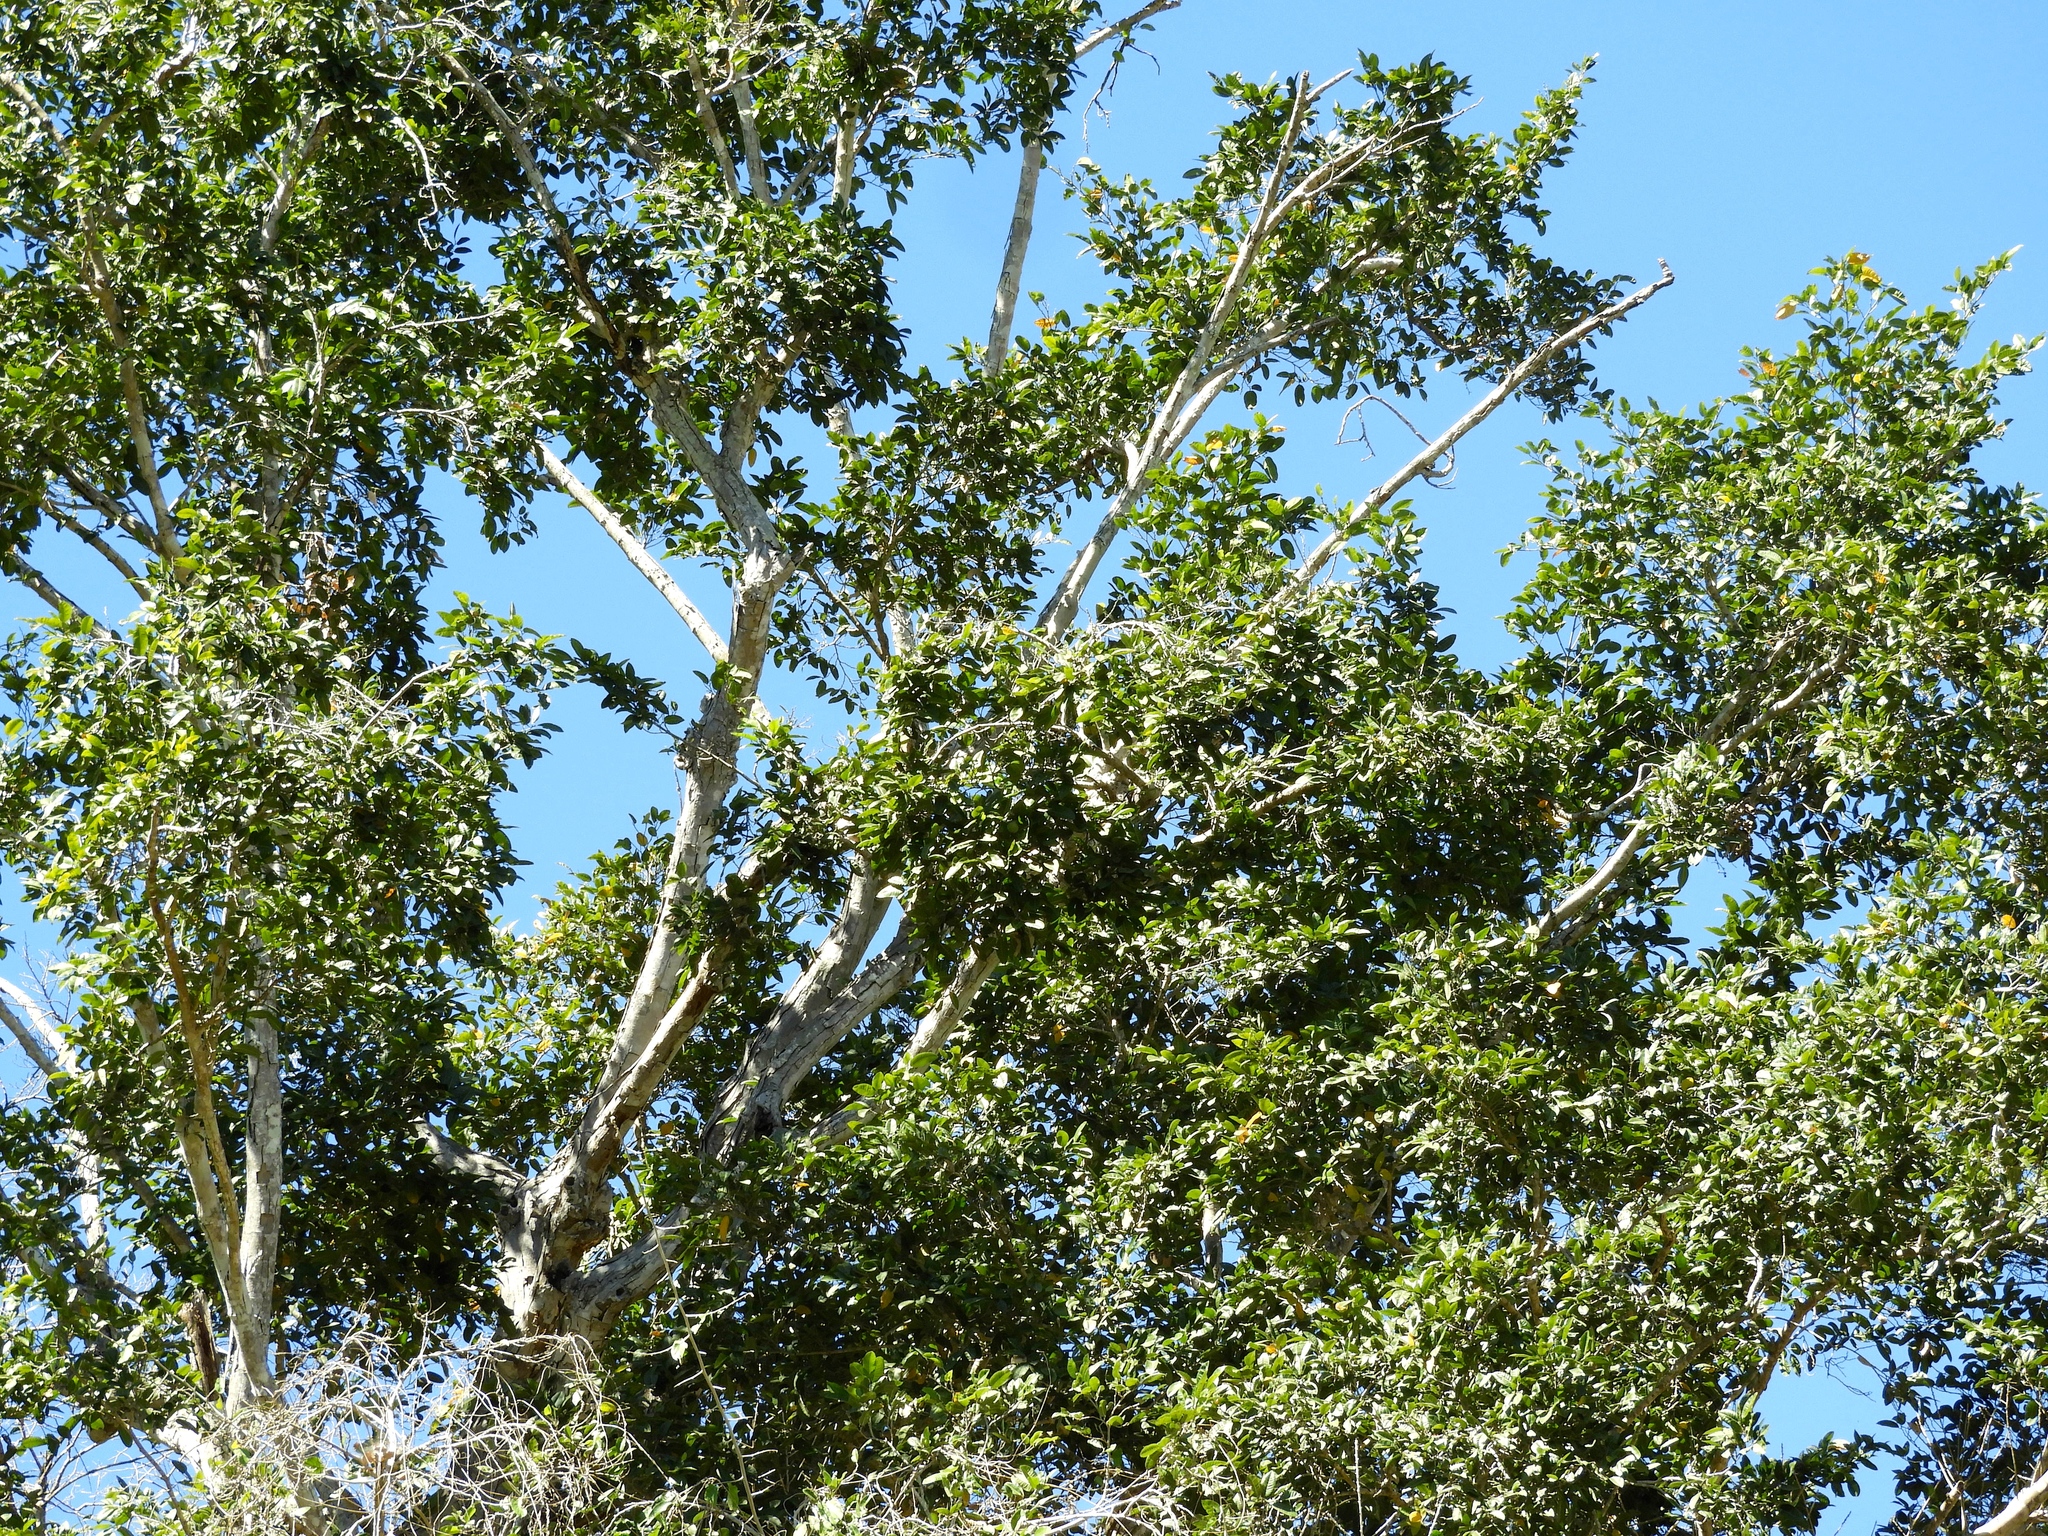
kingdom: Plantae
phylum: Tracheophyta
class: Magnoliopsida
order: Rosales
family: Moraceae
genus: Brosimum
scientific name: Brosimum alicastrum
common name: Breadnut
